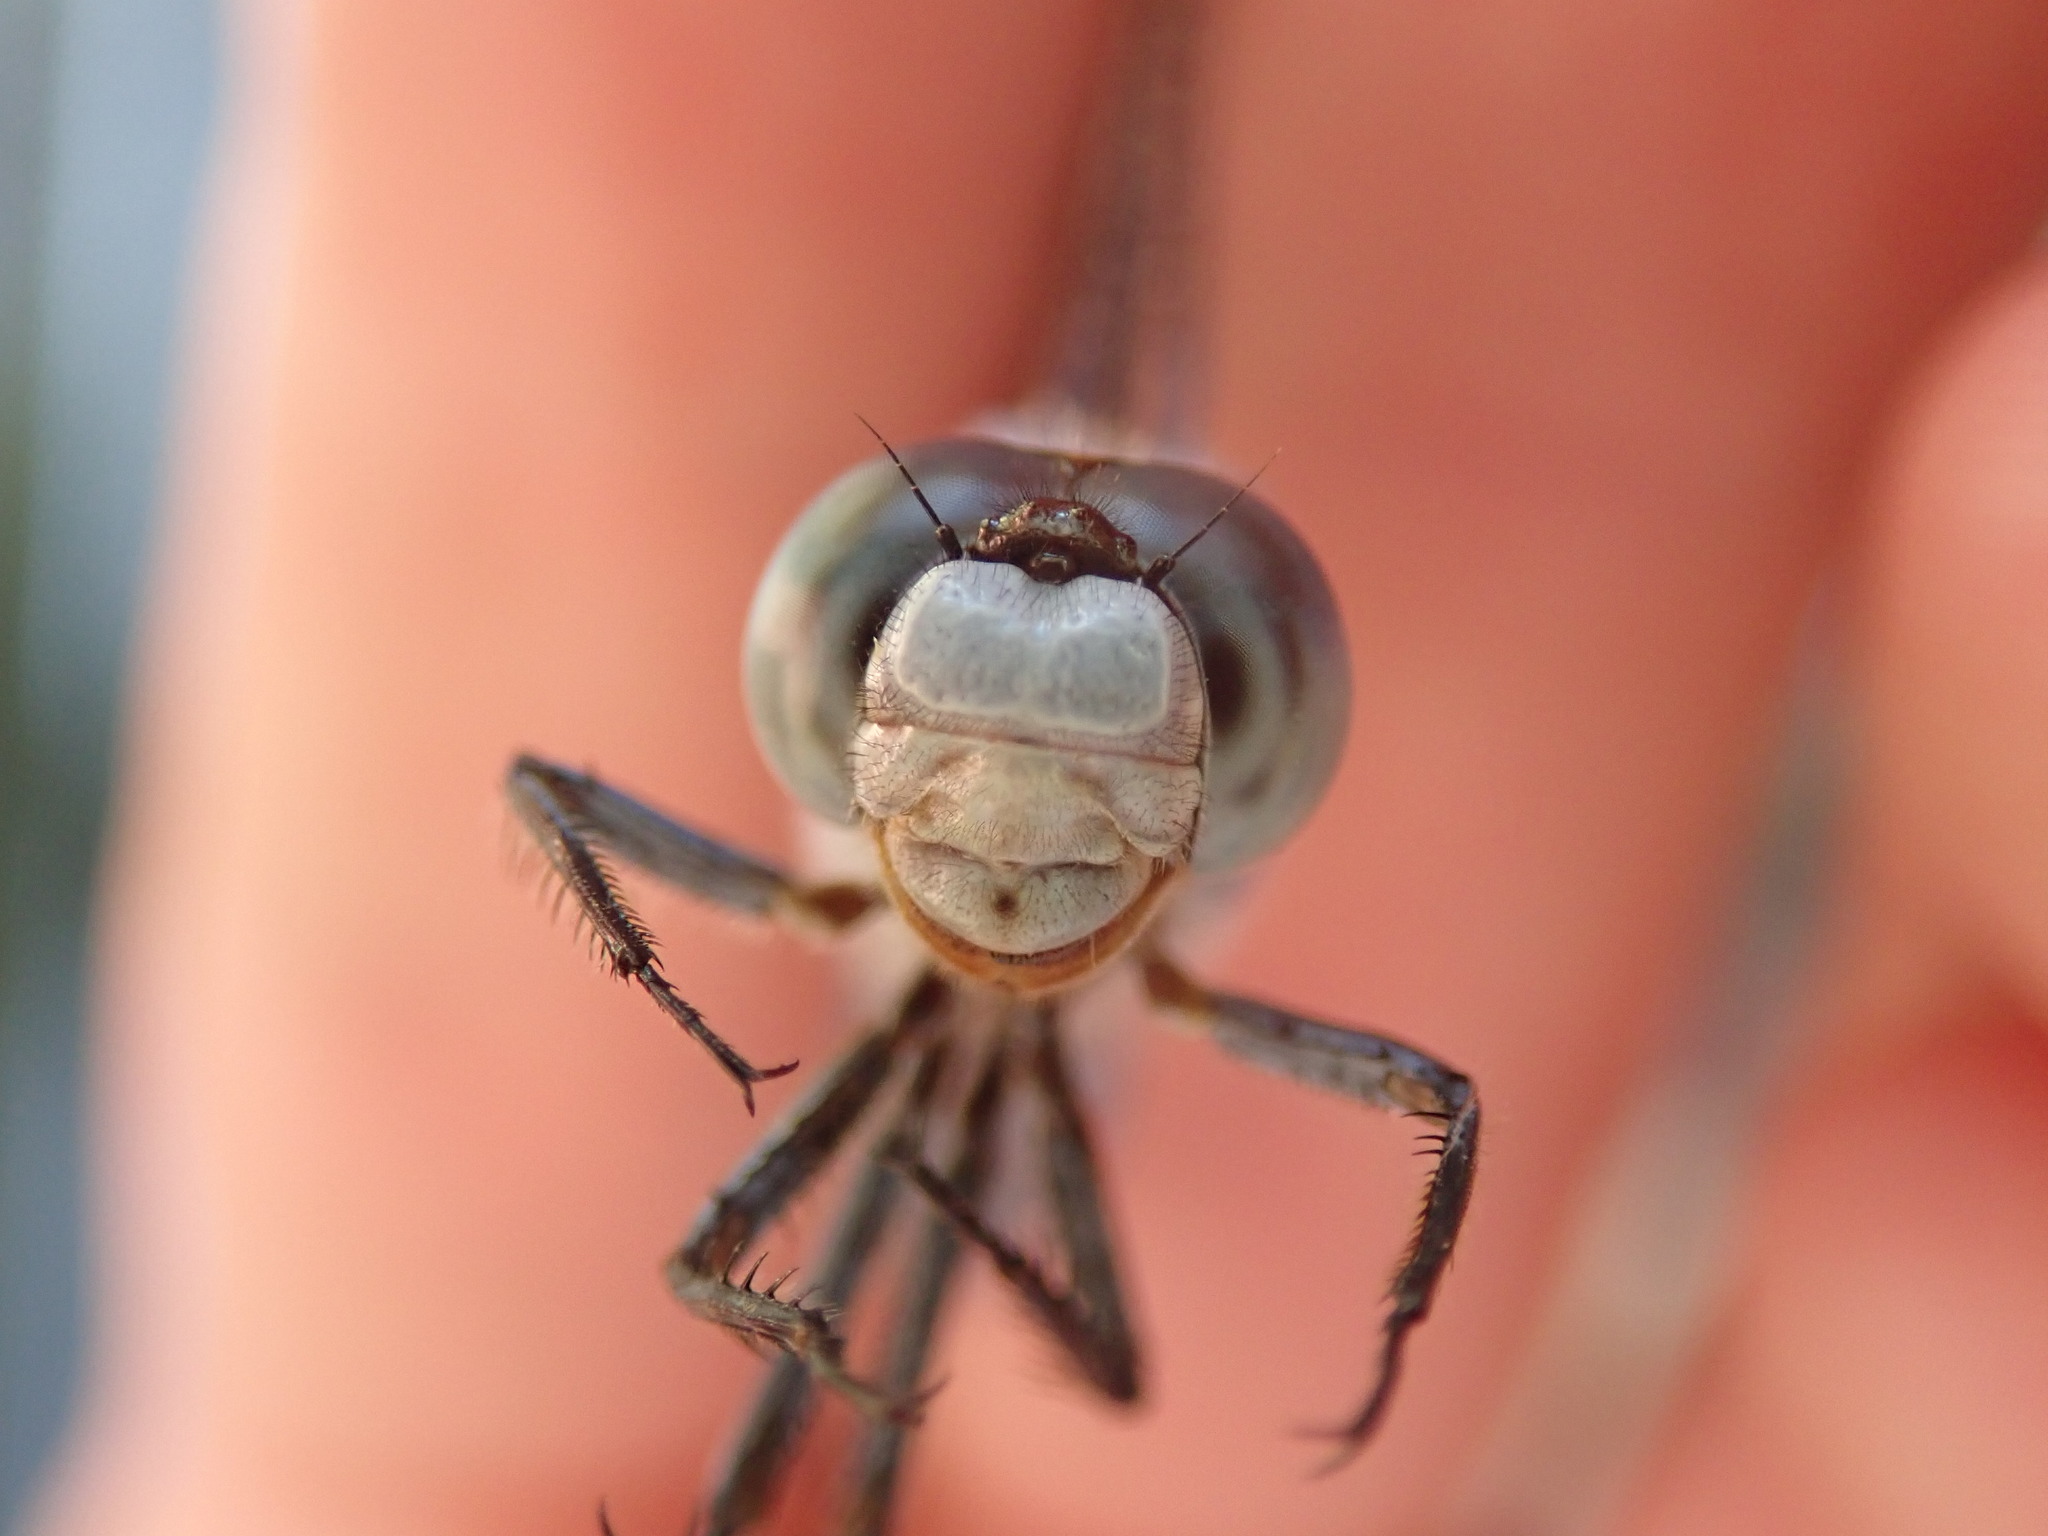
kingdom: Animalia
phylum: Arthropoda
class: Insecta
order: Odonata
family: Libellulidae
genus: Orthetrum
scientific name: Orthetrum brunneum
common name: Southern skimmer
